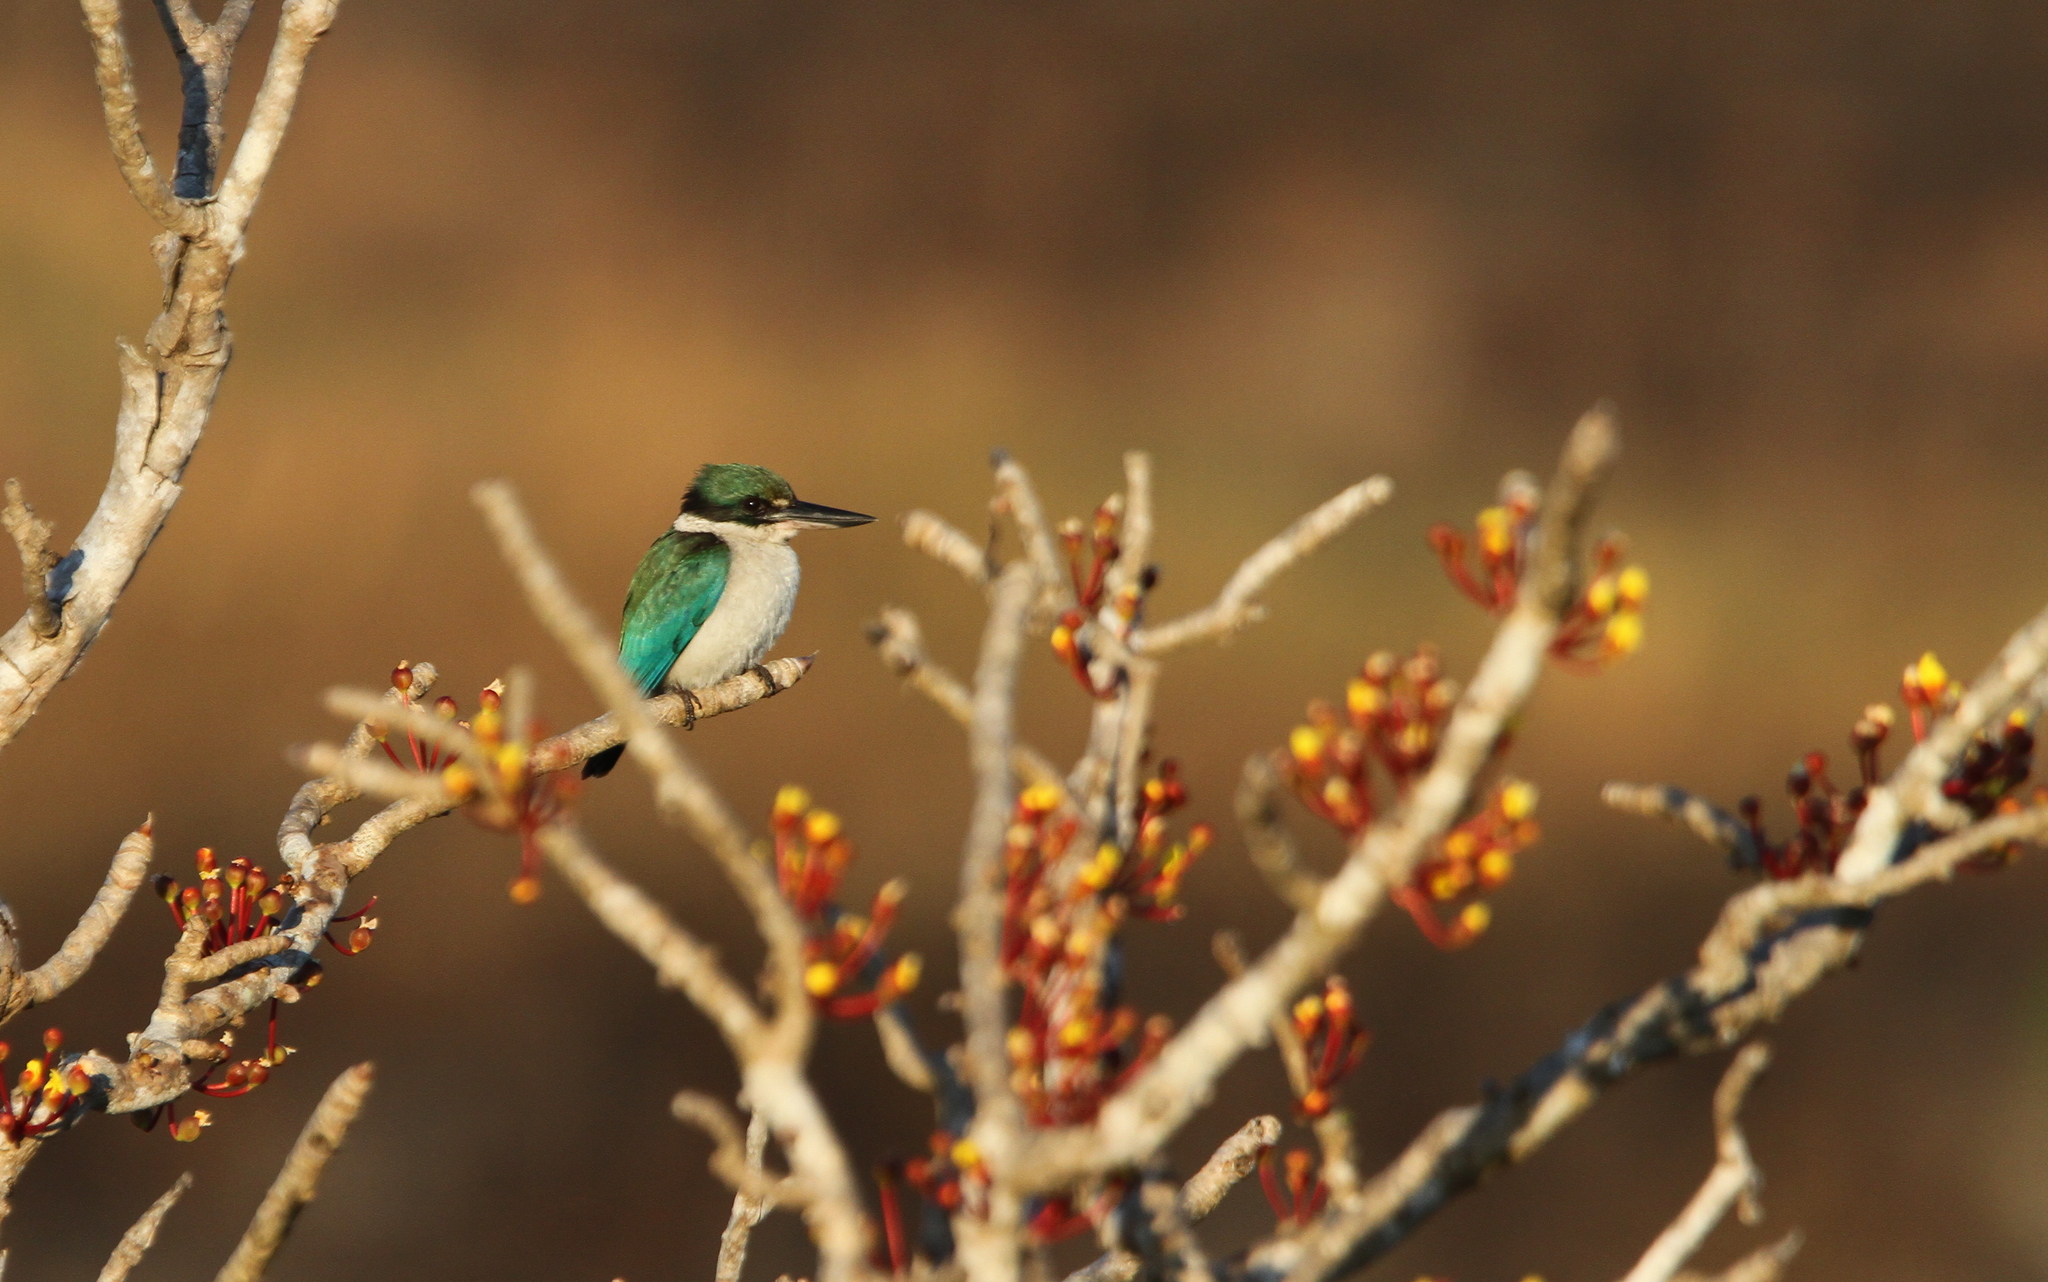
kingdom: Animalia
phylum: Chordata
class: Aves
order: Coraciiformes
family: Alcedinidae
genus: Todiramphus
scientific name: Todiramphus chloris
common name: Collared kingfisher
